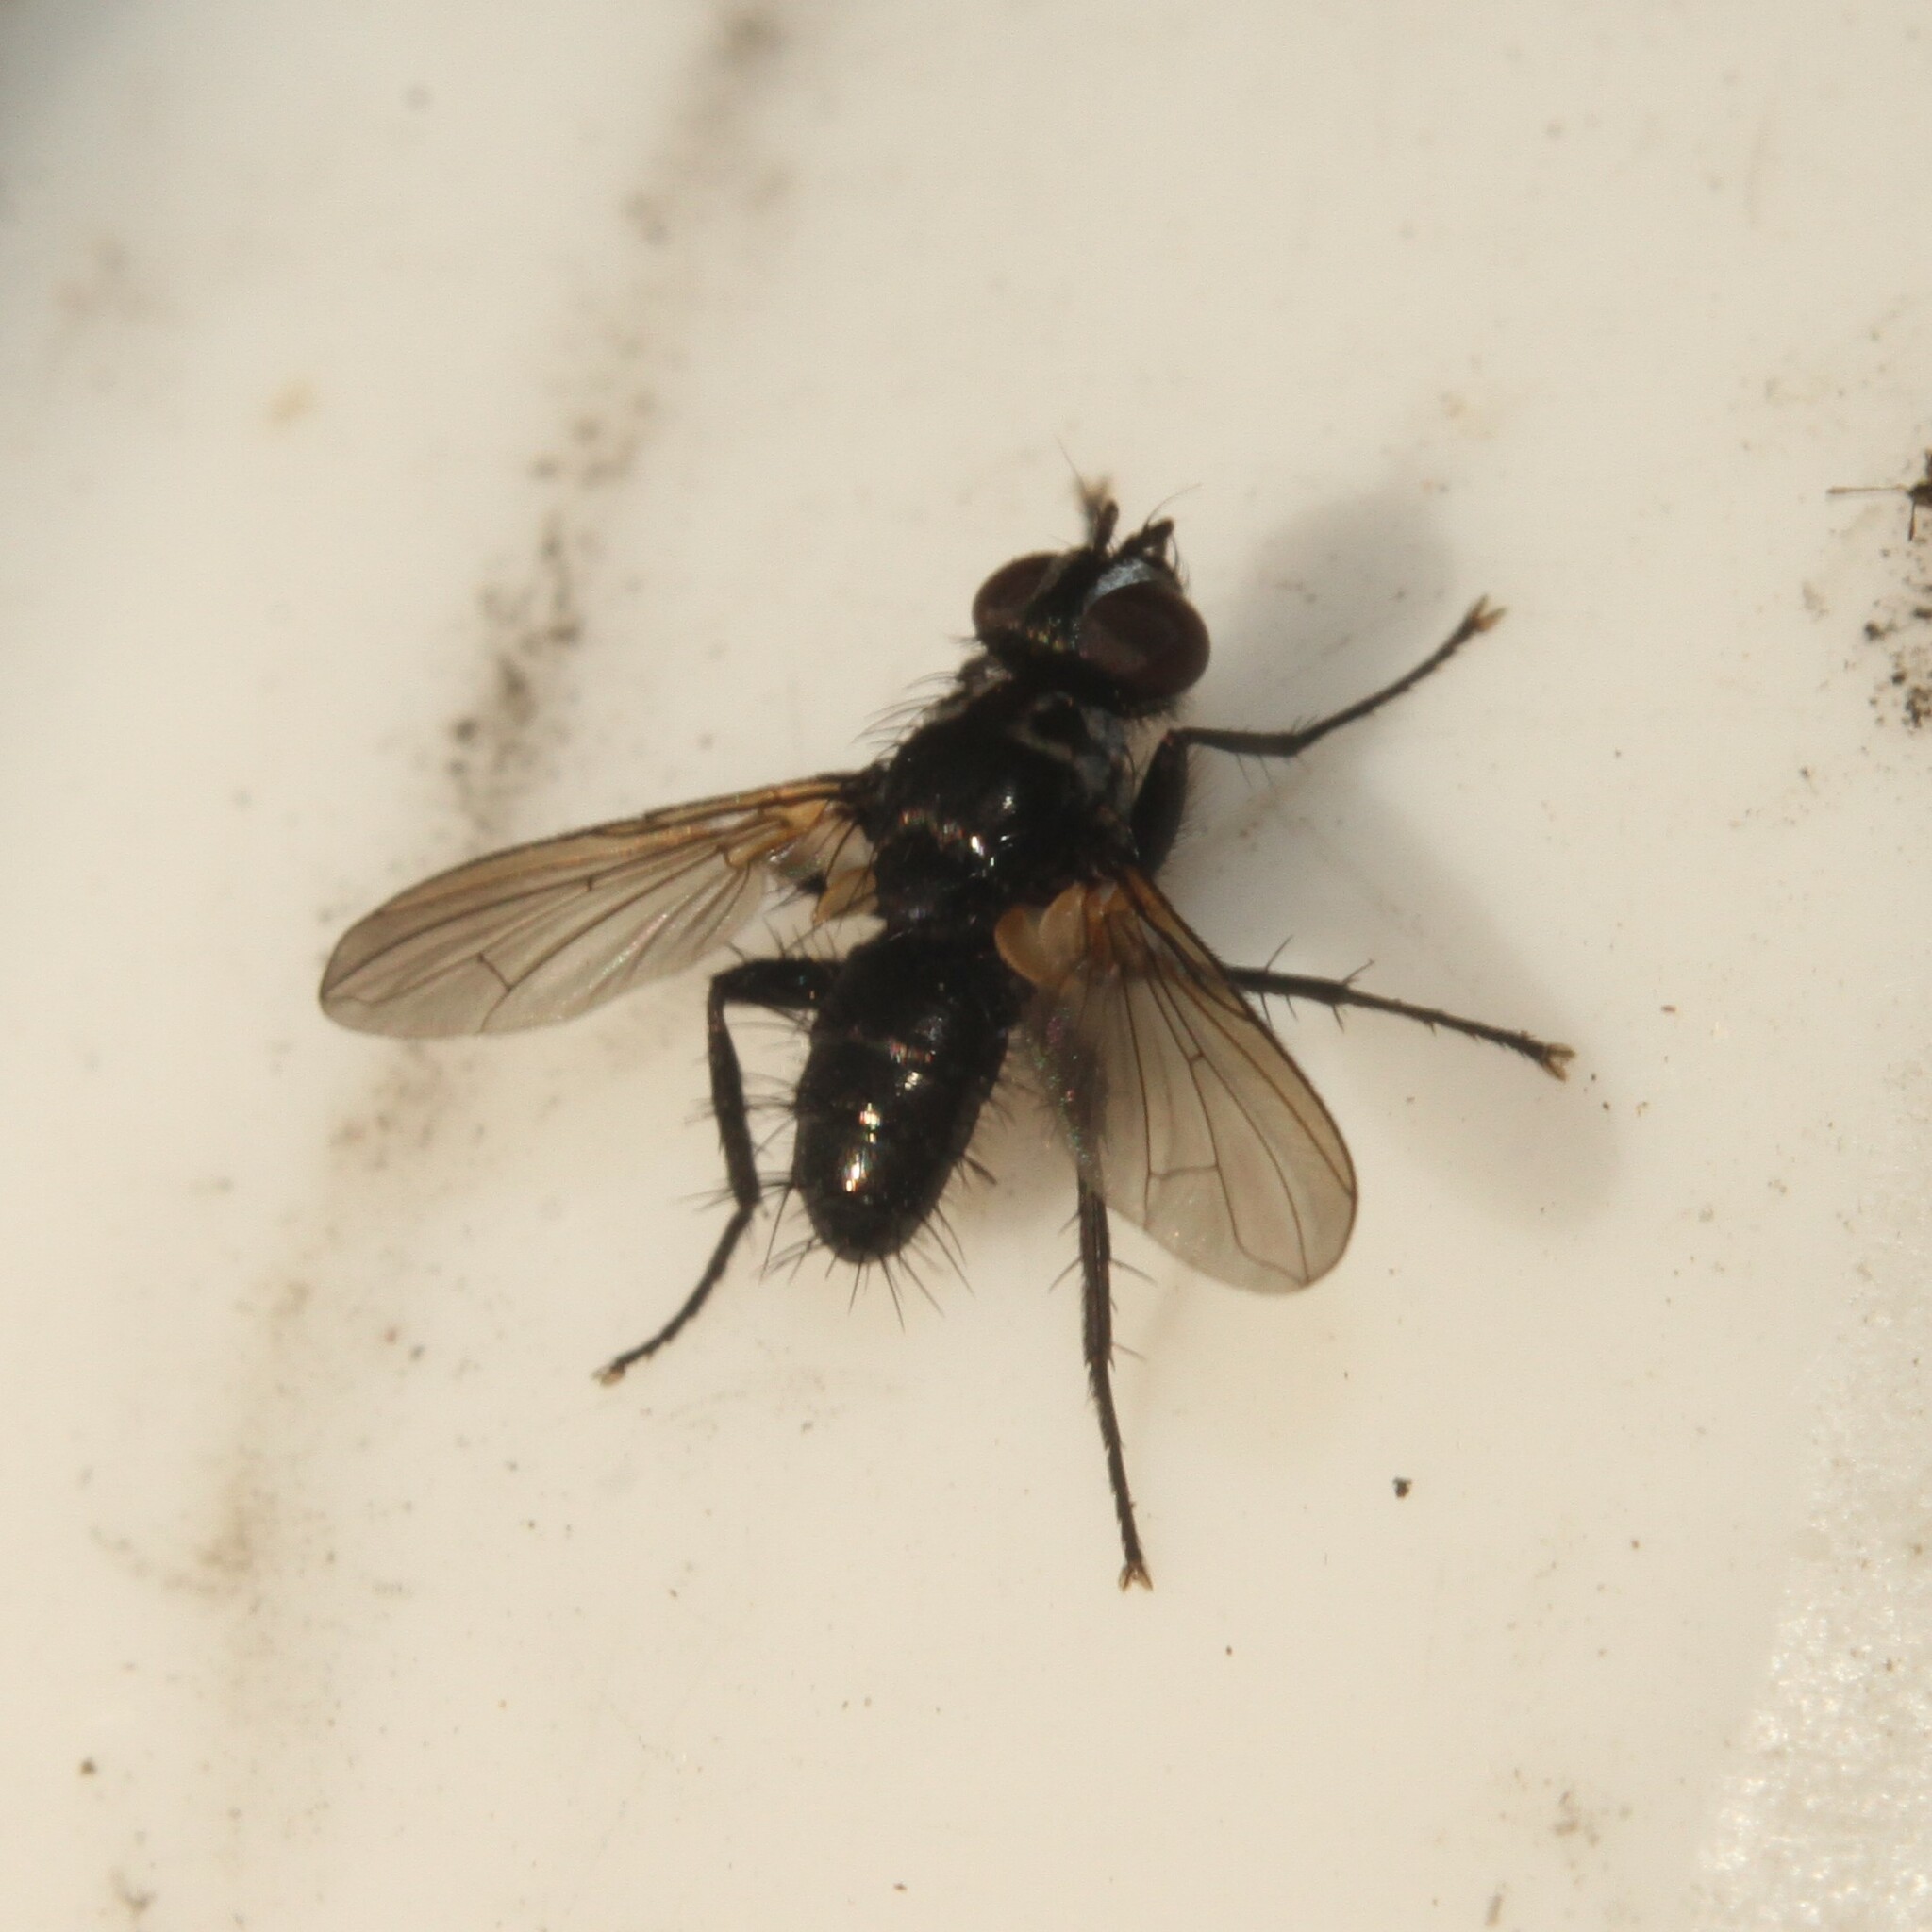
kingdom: Animalia
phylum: Arthropoda
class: Insecta
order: Diptera
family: Tachinidae
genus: Phania
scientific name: Phania funesta
